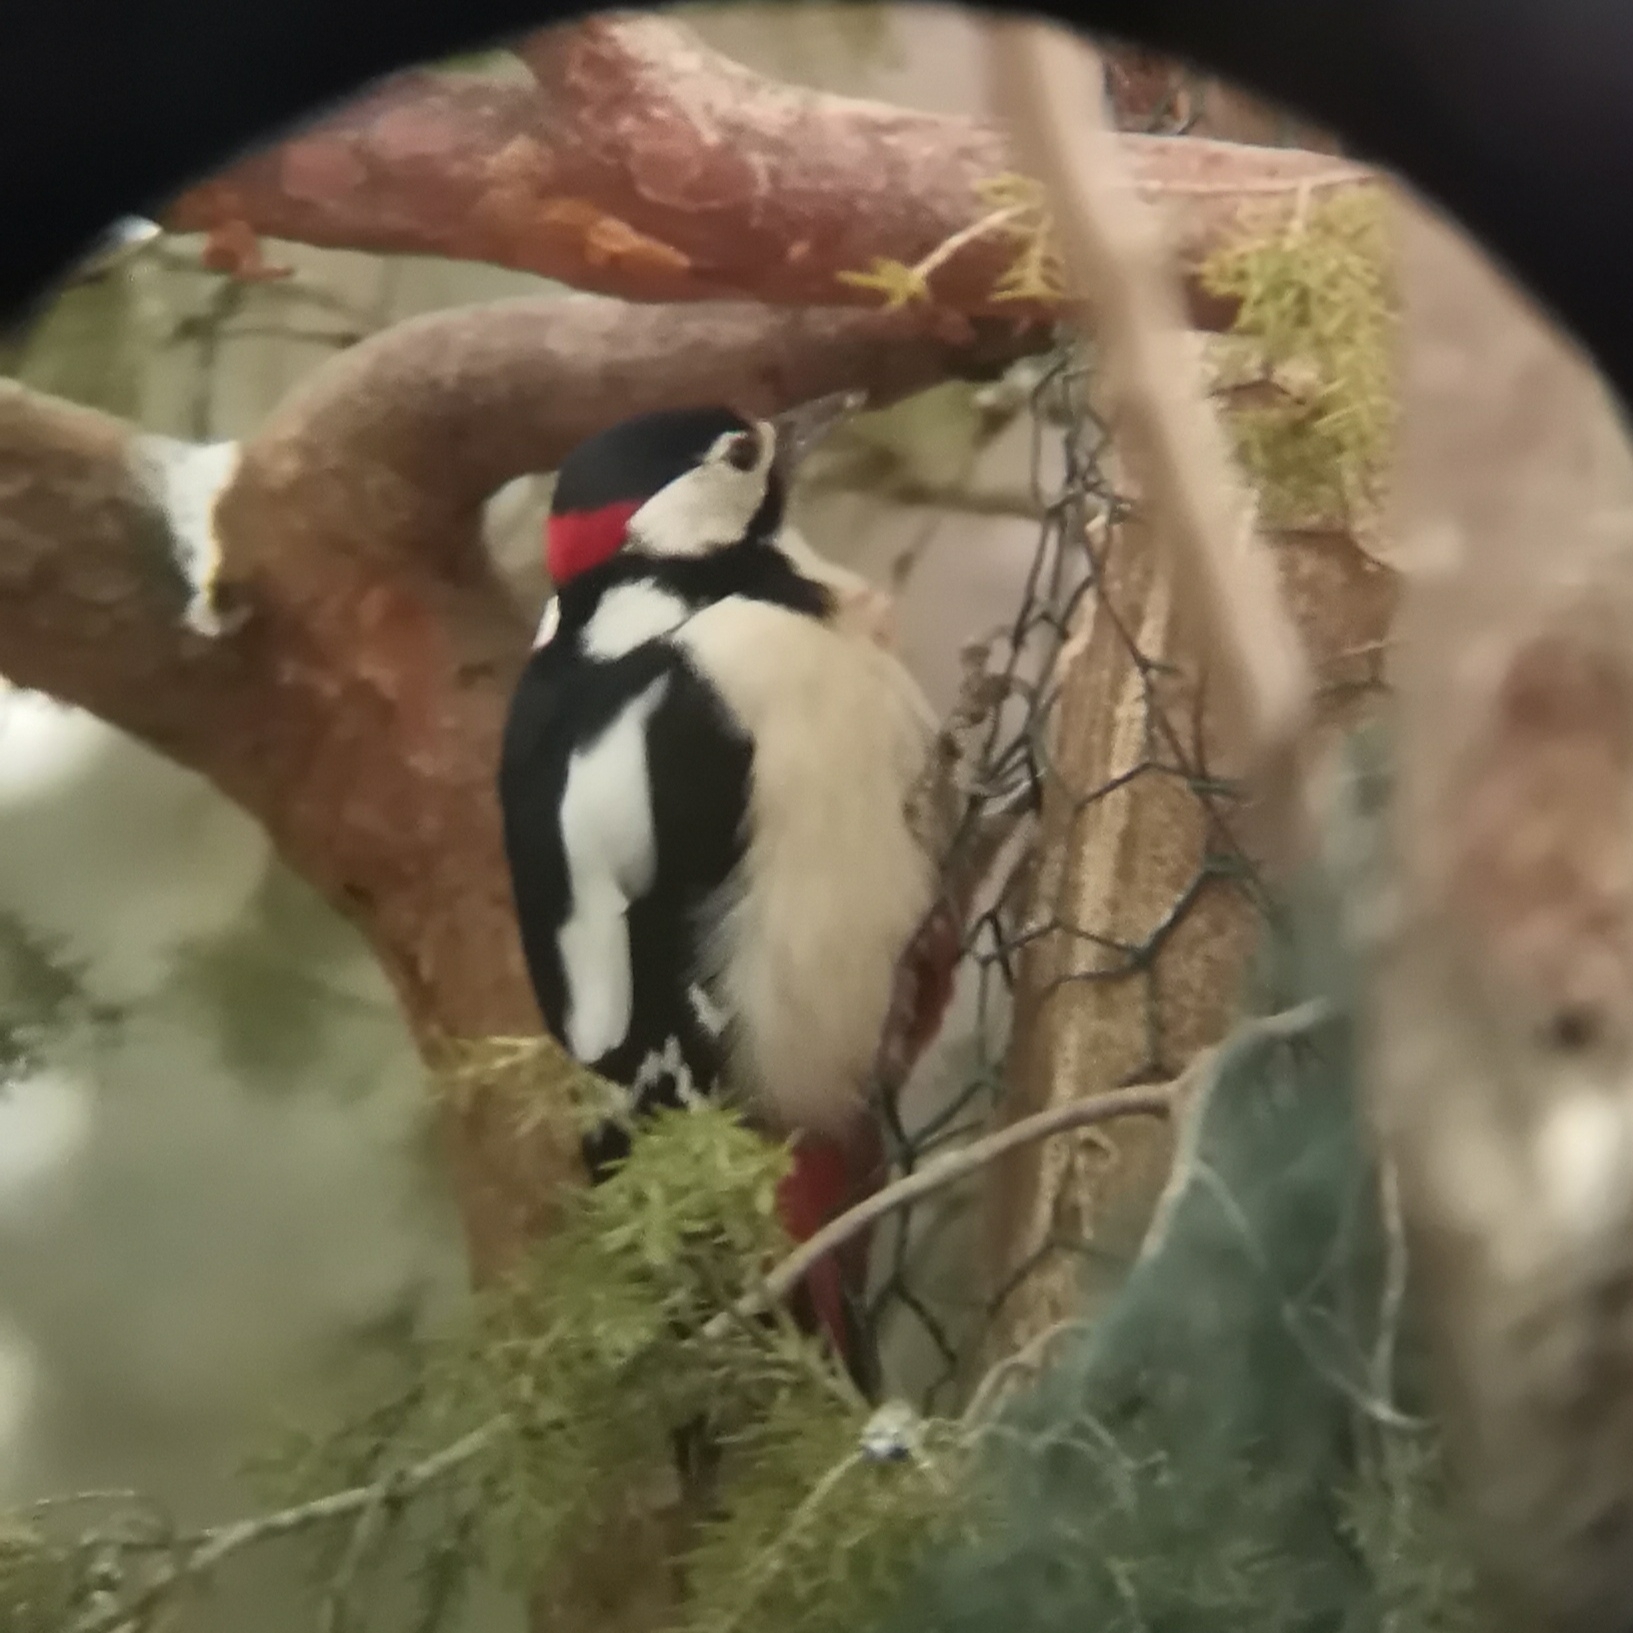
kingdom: Animalia
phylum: Chordata
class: Aves
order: Piciformes
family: Picidae
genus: Dendrocopos
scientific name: Dendrocopos major
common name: Great spotted woodpecker
